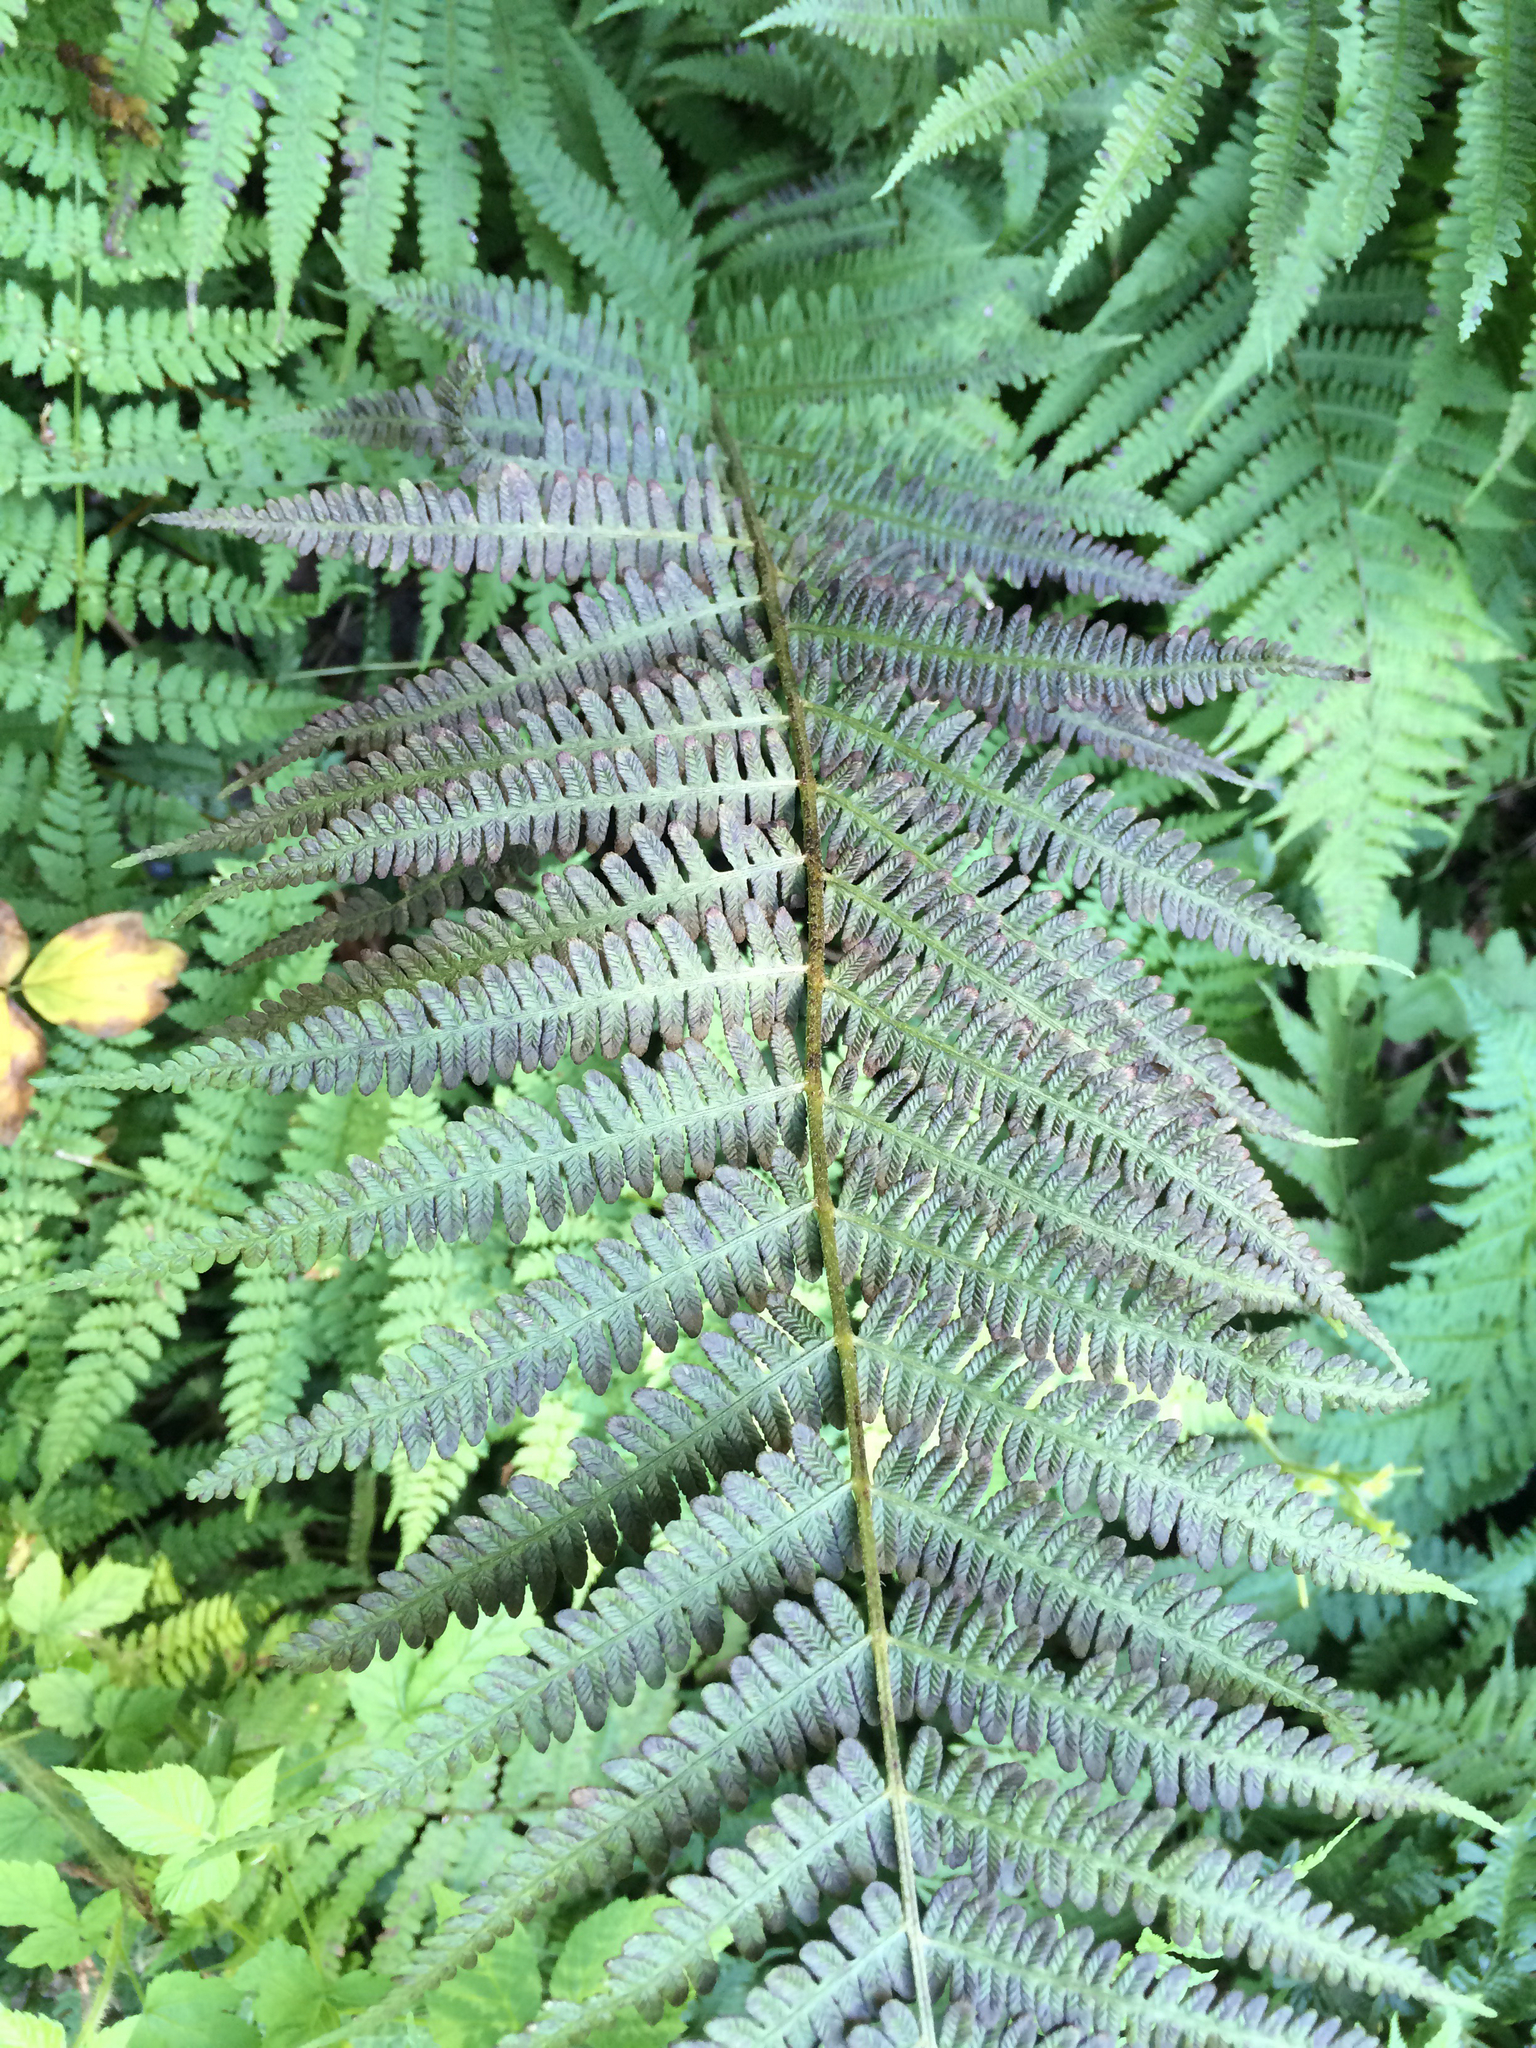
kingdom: Plantae
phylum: Tracheophyta
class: Polypodiopsida
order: Polypodiales
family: Athyriaceae
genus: Deparia
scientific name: Deparia acrostichoides
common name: Silver false spleenwort
